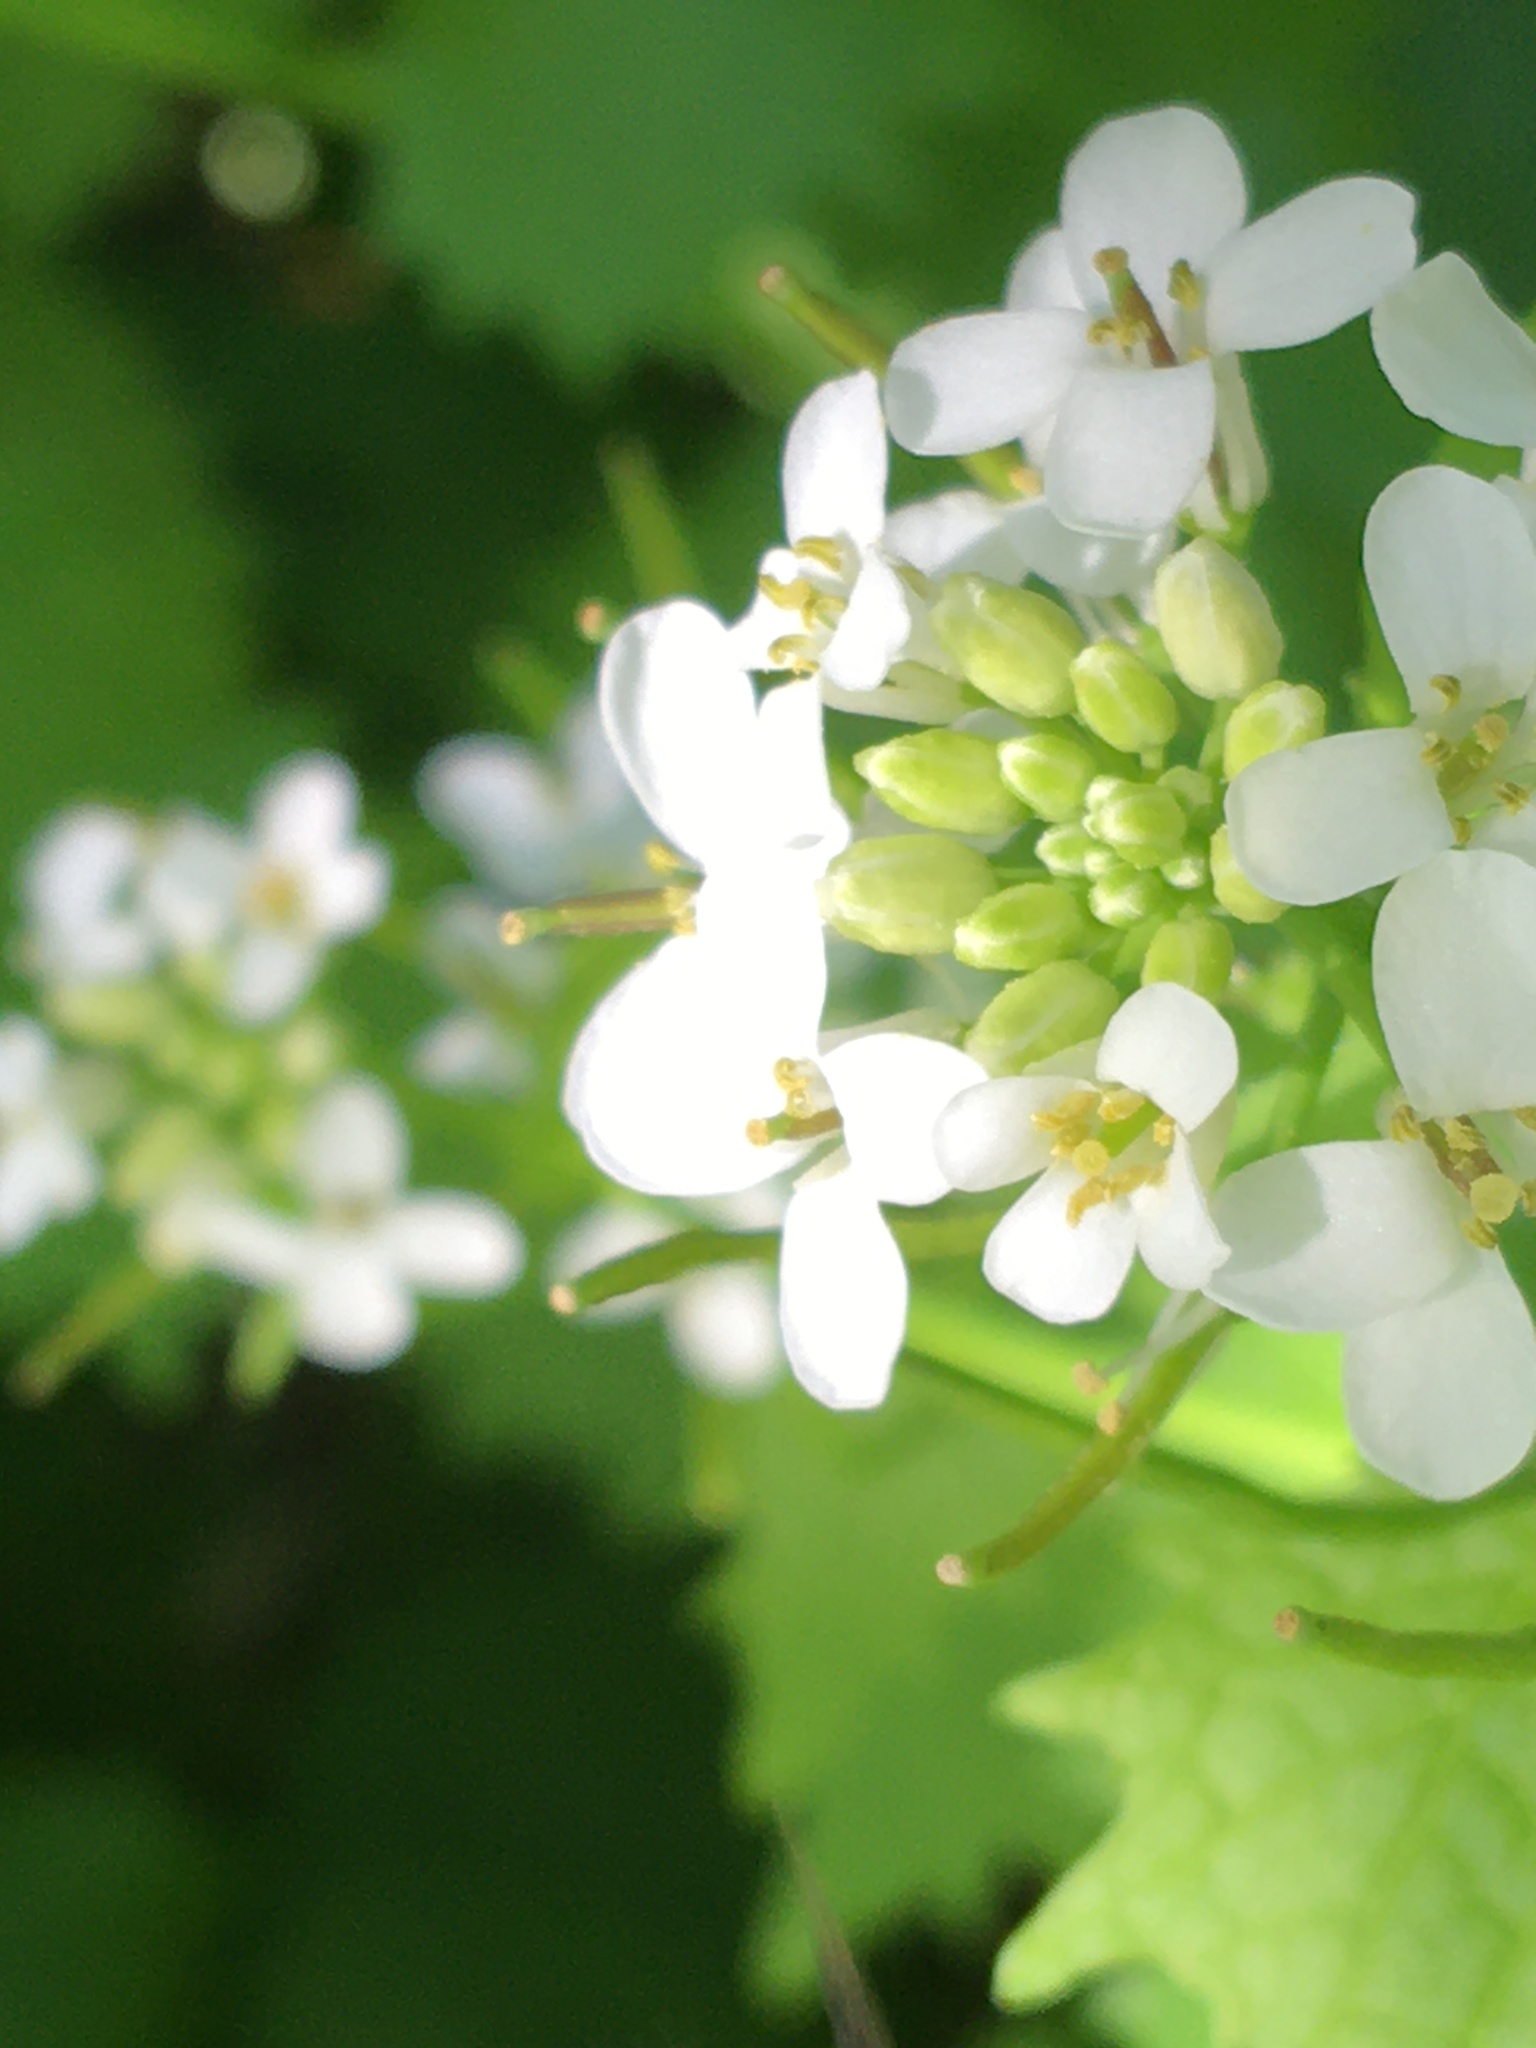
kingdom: Plantae
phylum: Tracheophyta
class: Magnoliopsida
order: Brassicales
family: Brassicaceae
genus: Alliaria
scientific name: Alliaria petiolata
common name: Garlic mustard
